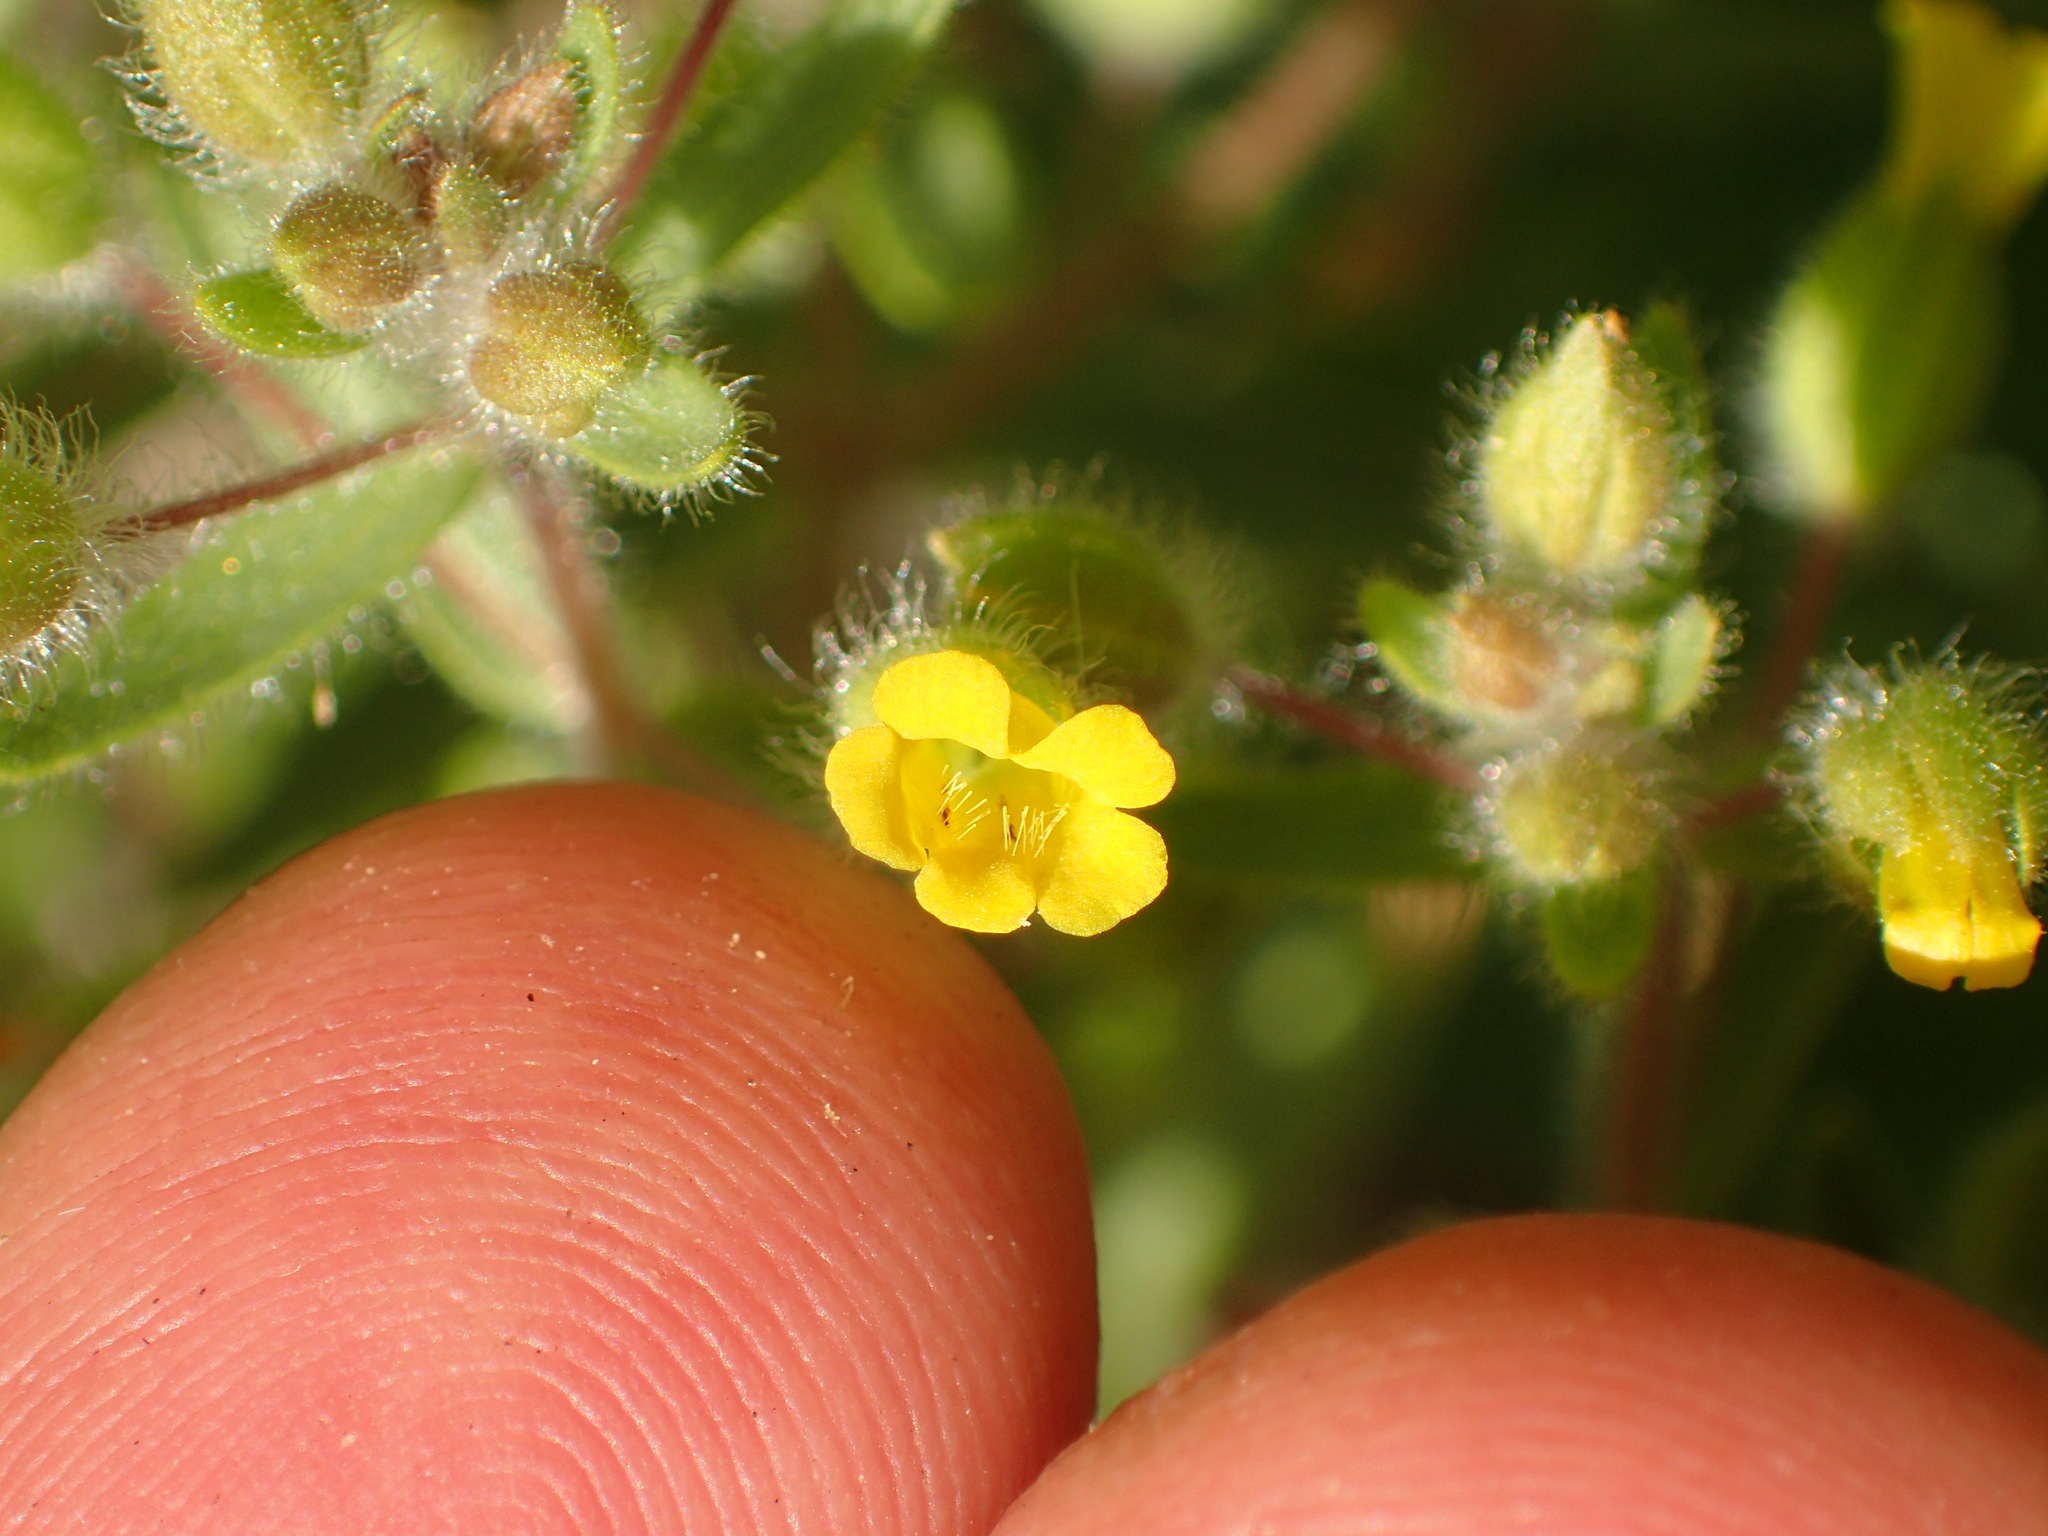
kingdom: Plantae
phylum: Tracheophyta
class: Magnoliopsida
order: Lamiales
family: Phrymaceae
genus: Mimetanthe
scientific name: Mimetanthe pilosa
